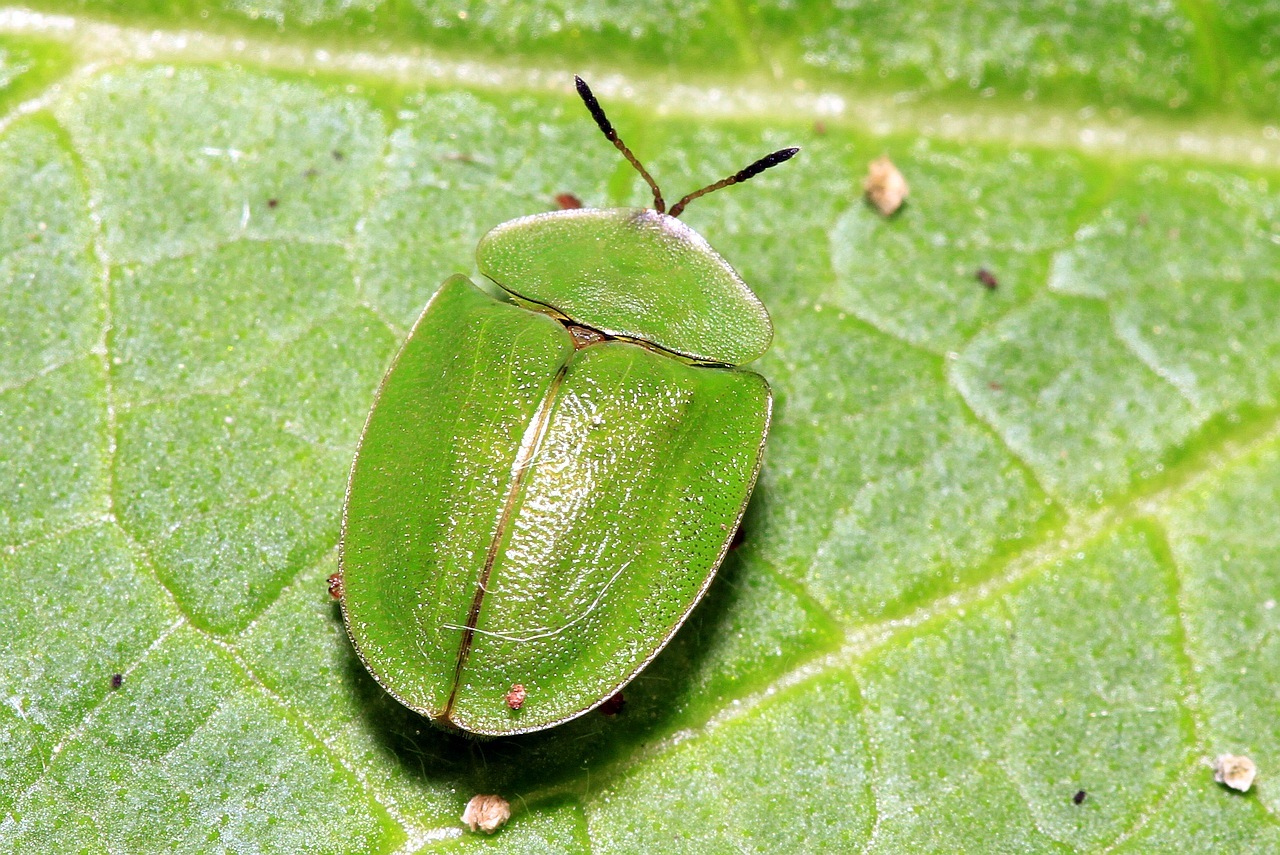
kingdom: Animalia
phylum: Arthropoda
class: Insecta
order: Coleoptera
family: Chrysomelidae
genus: Cassida
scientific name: Cassida viridis
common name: Green tortoise beetle
